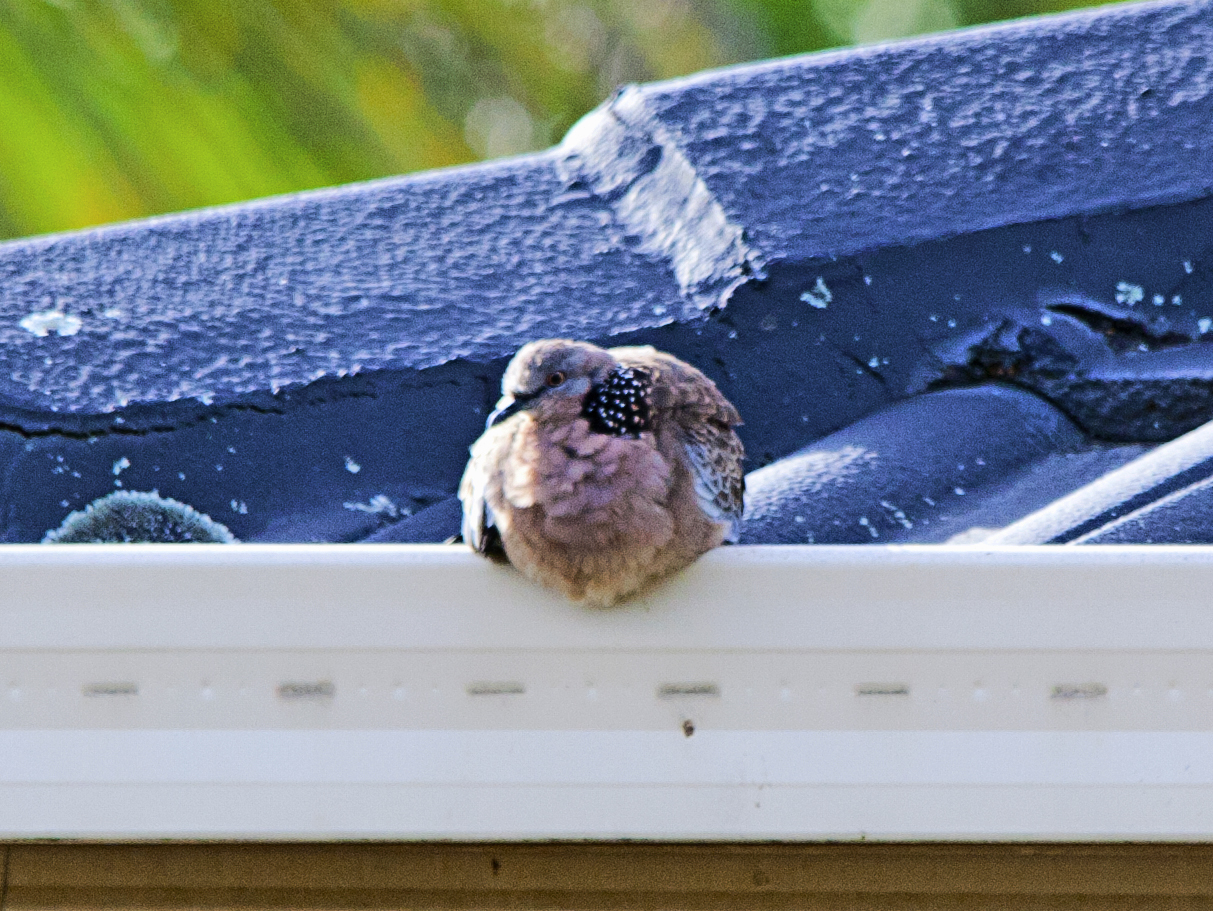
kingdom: Animalia
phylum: Chordata
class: Aves
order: Columbiformes
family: Columbidae
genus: Spilopelia
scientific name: Spilopelia chinensis
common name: Spotted dove
